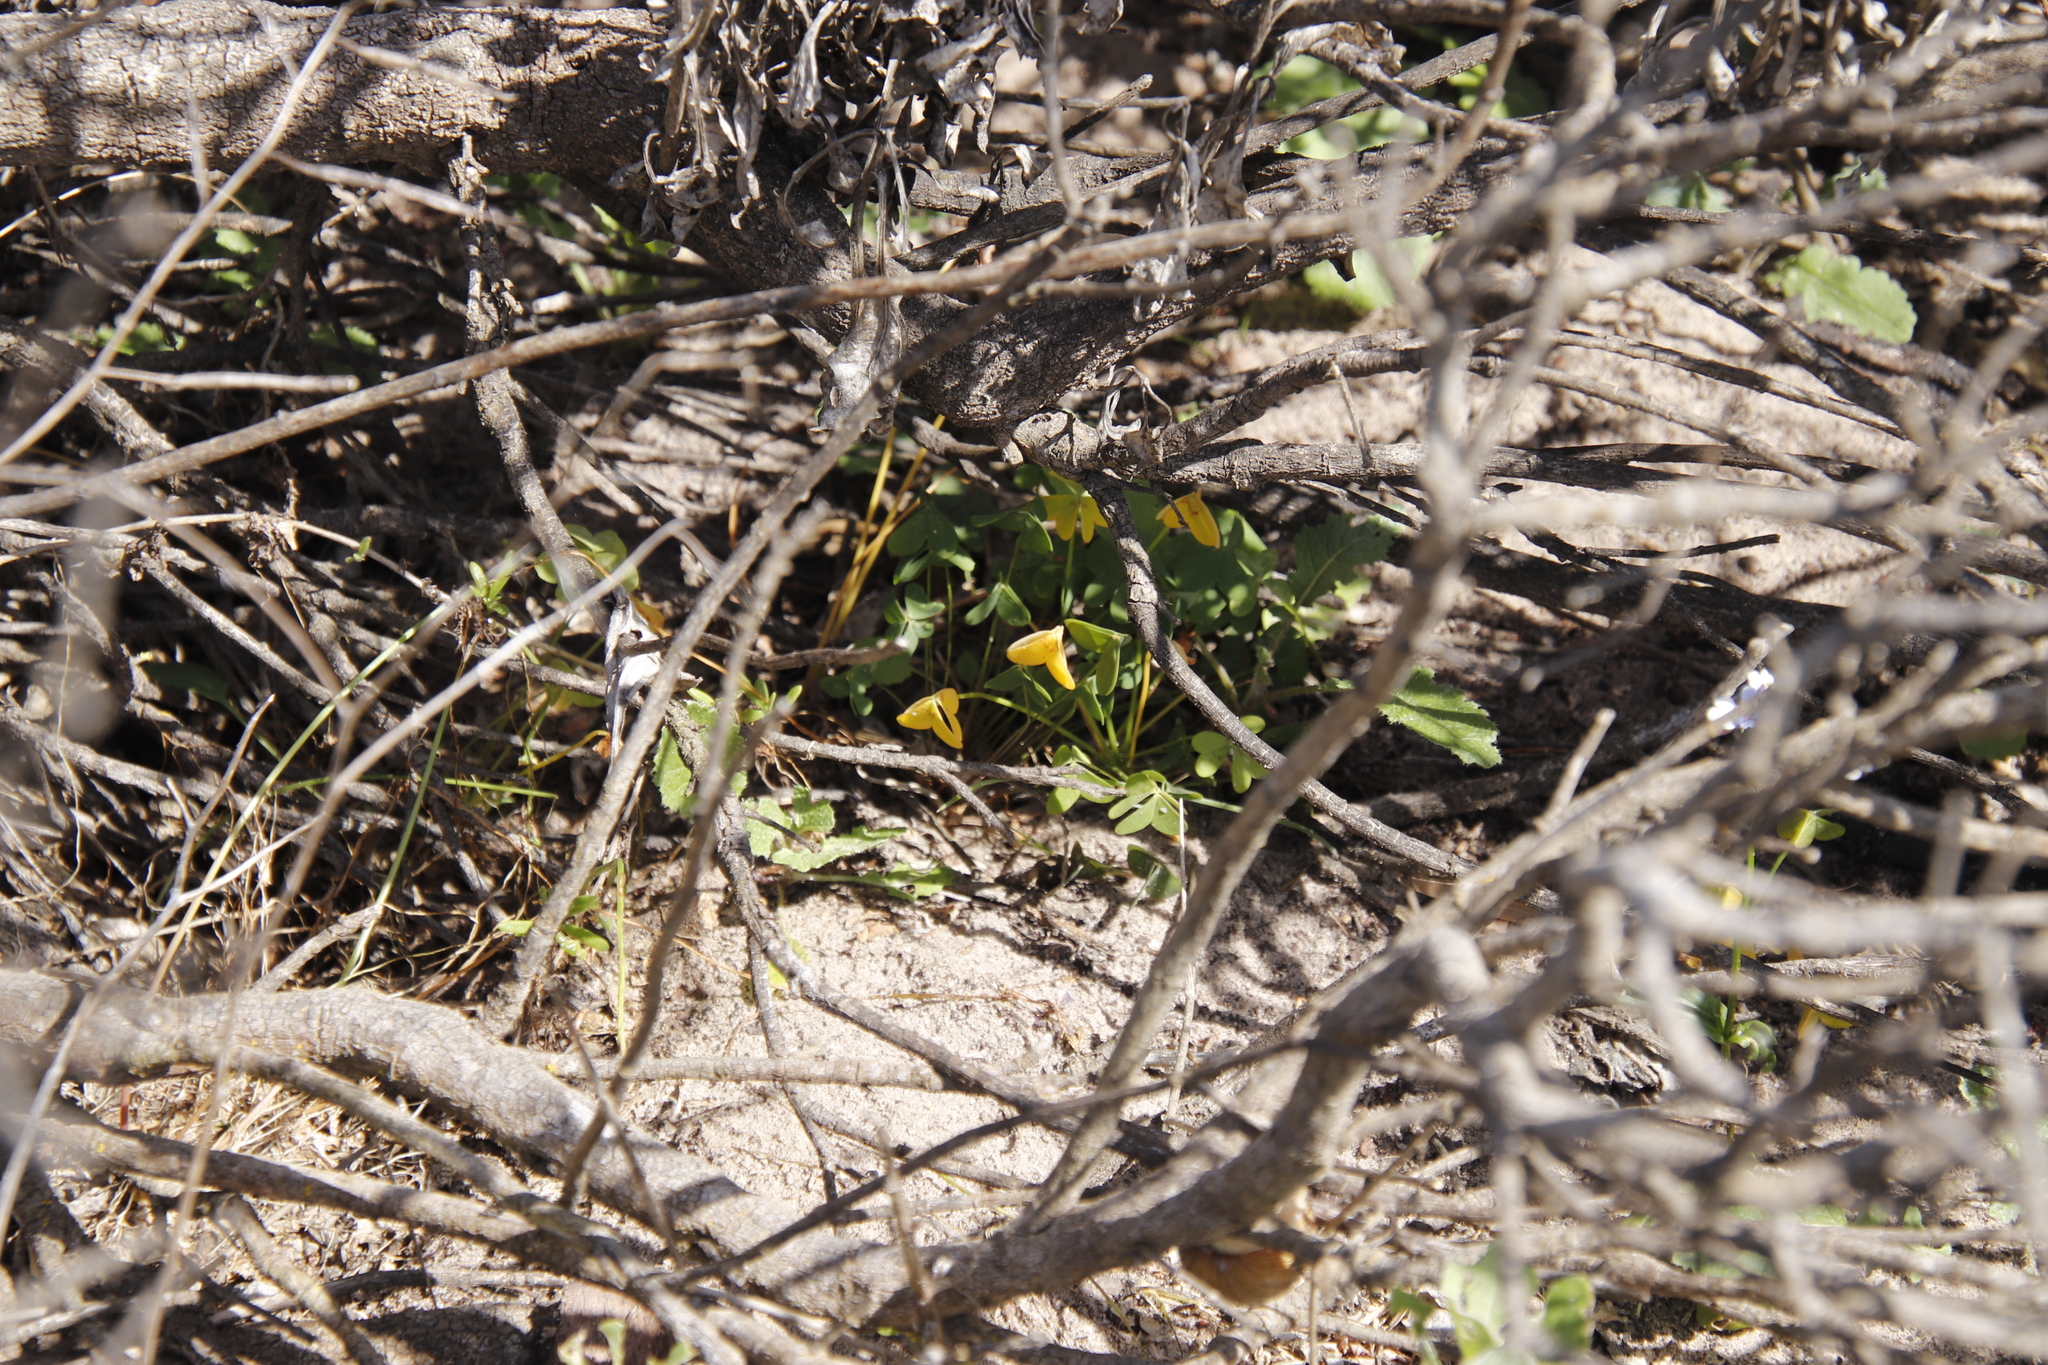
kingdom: Plantae
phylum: Tracheophyta
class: Magnoliopsida
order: Oxalidales
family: Oxalidaceae
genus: Oxalis
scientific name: Oxalis pes-caprae
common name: Bermuda-buttercup
